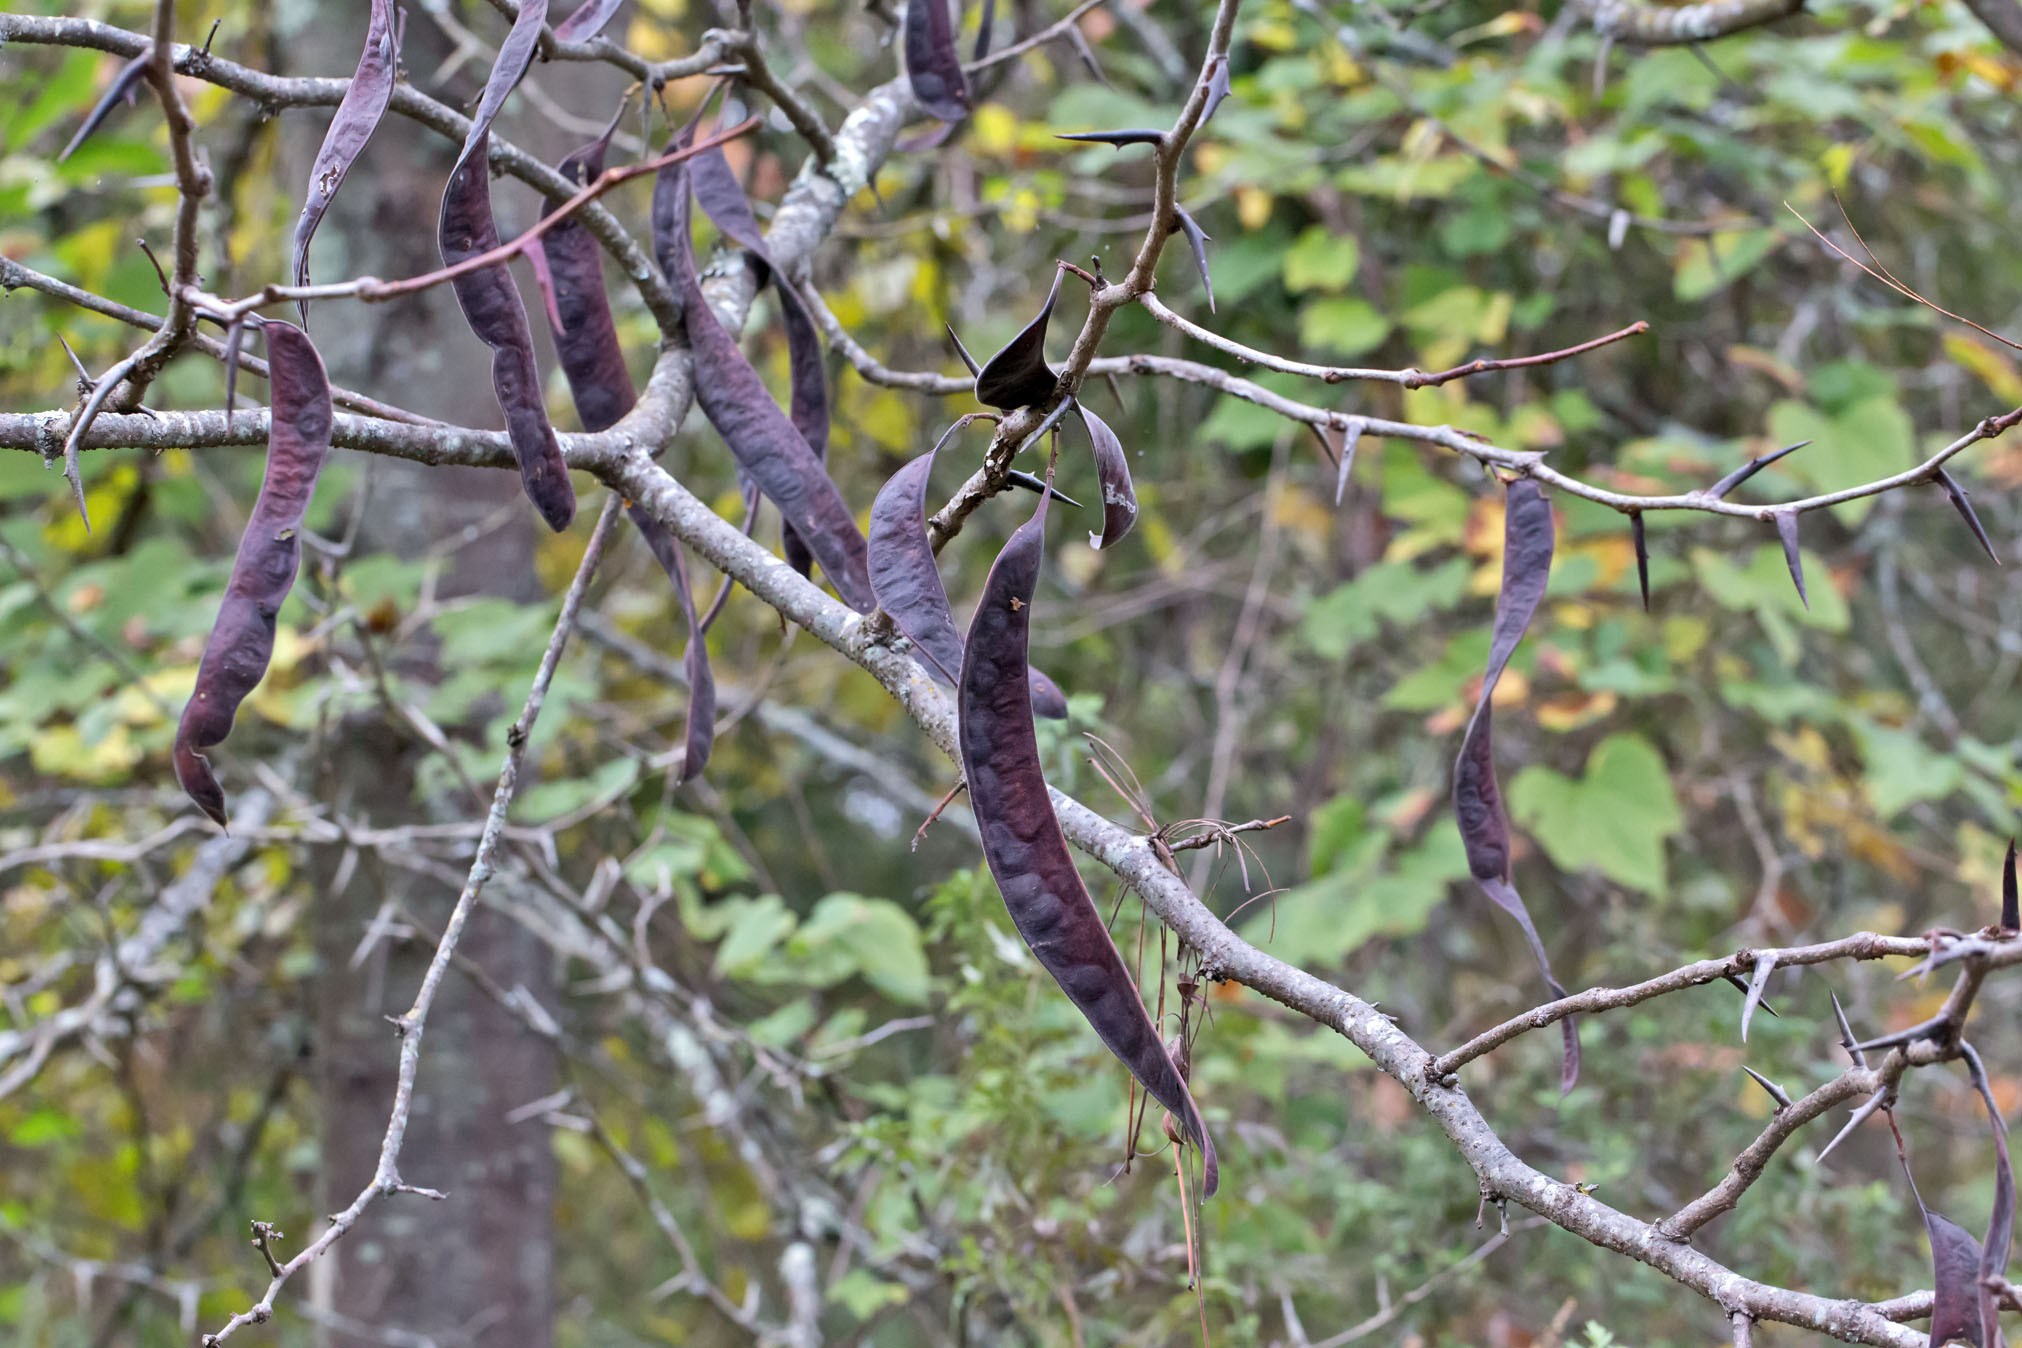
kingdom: Plantae
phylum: Tracheophyta
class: Magnoliopsida
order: Fabales
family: Fabaceae
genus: Gleditsia
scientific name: Gleditsia triacanthos
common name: Common honeylocust
